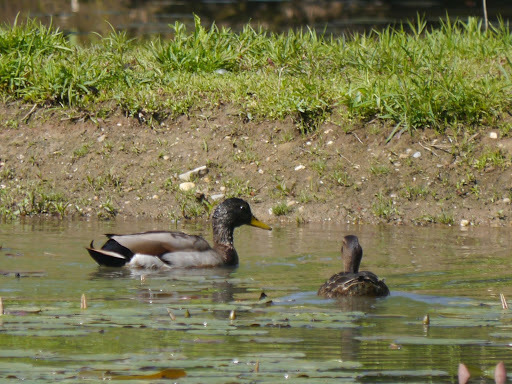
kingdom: Animalia
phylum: Chordata
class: Aves
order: Anseriformes
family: Anatidae
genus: Anas
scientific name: Anas platyrhynchos
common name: Mallard
